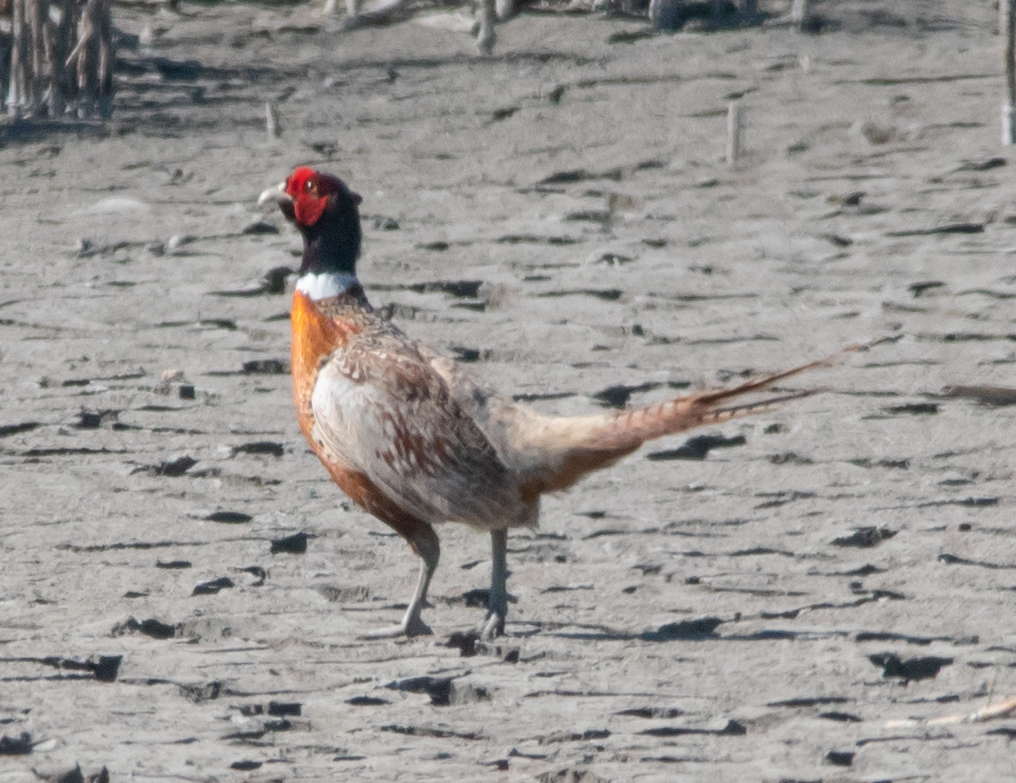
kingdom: Animalia
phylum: Chordata
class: Aves
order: Galliformes
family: Phasianidae
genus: Phasianus
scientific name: Phasianus colchicus
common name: Common pheasant
